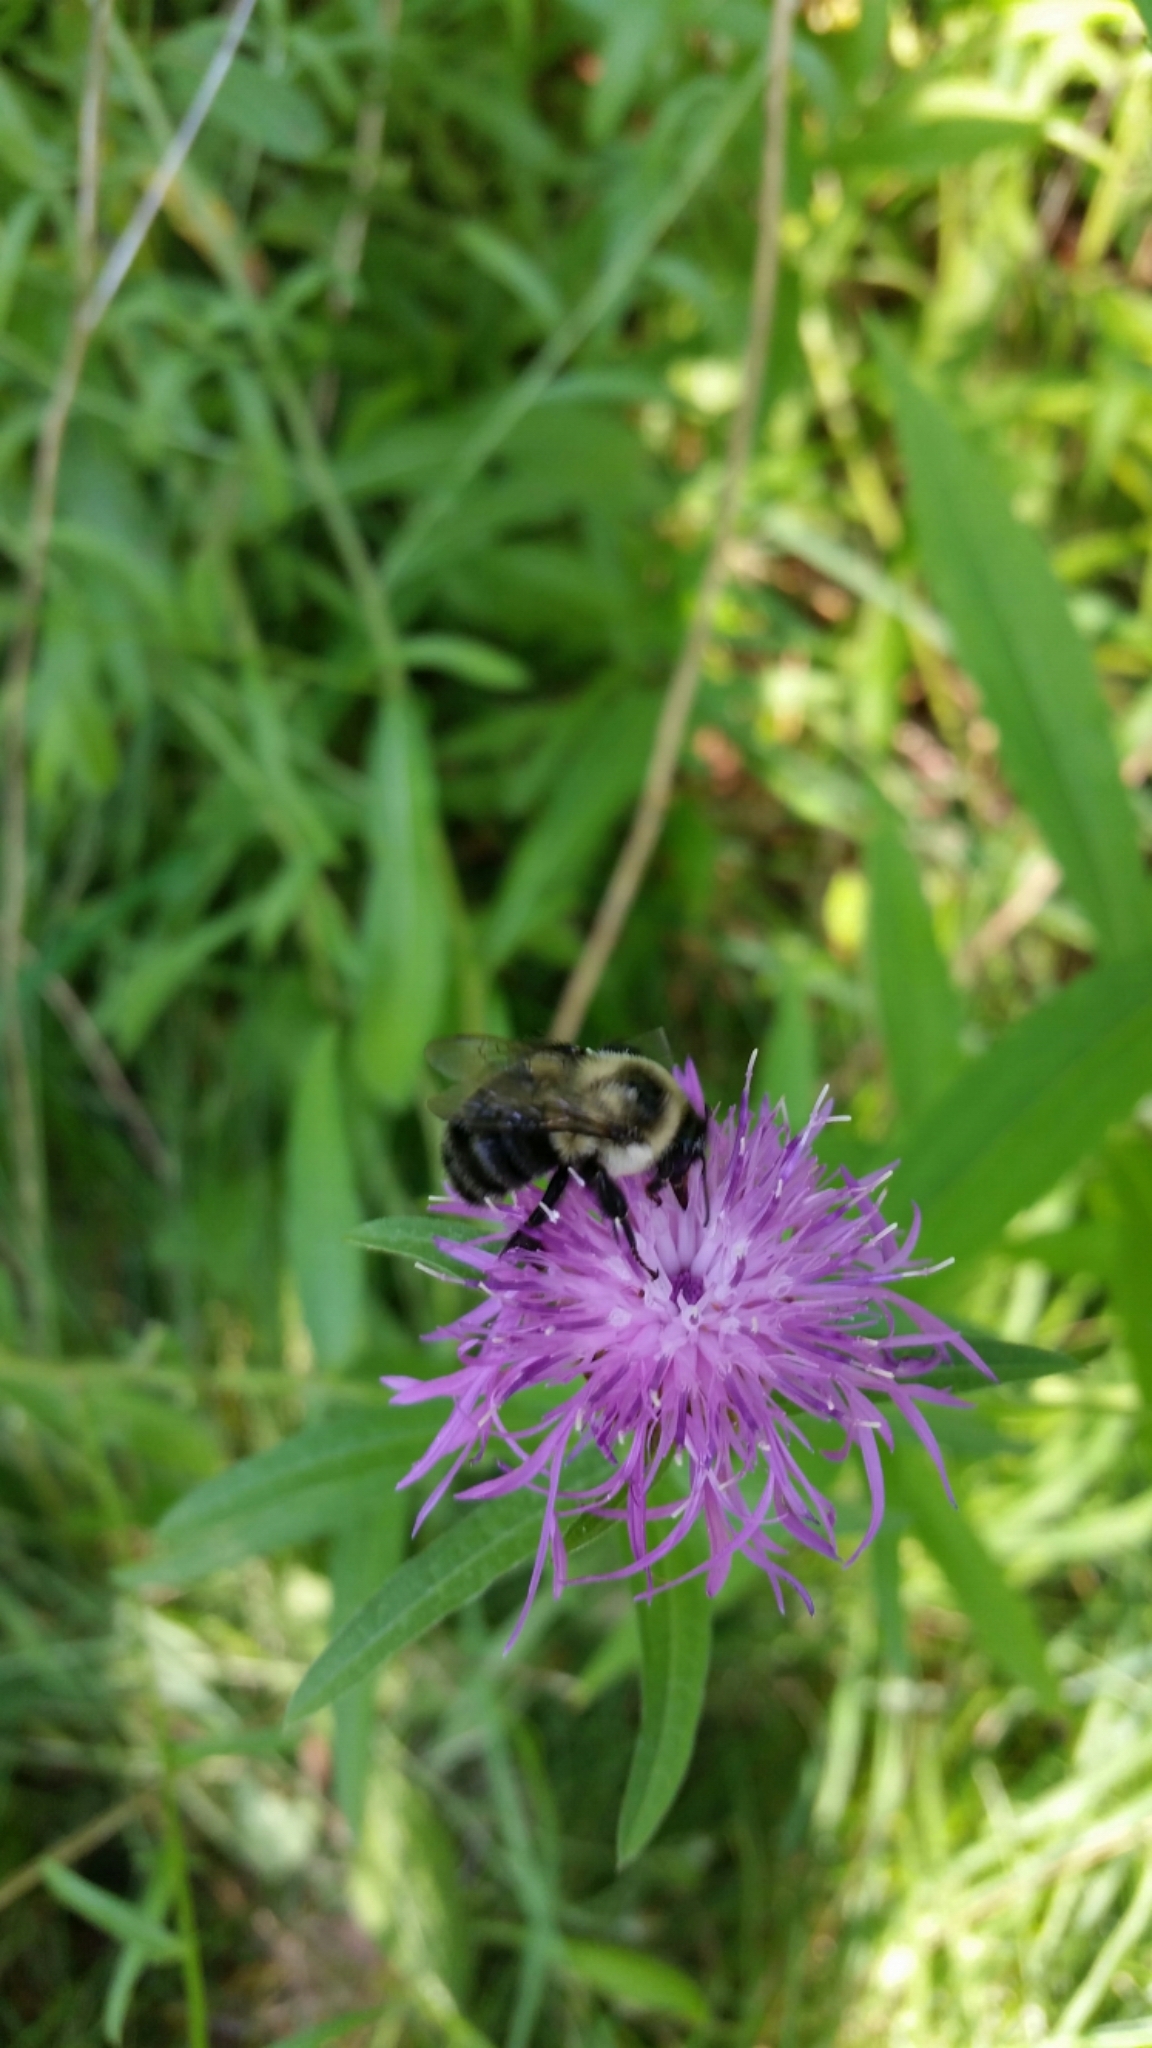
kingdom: Animalia
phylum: Arthropoda
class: Insecta
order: Hymenoptera
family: Apidae
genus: Bombus
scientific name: Bombus impatiens
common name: Common eastern bumble bee
